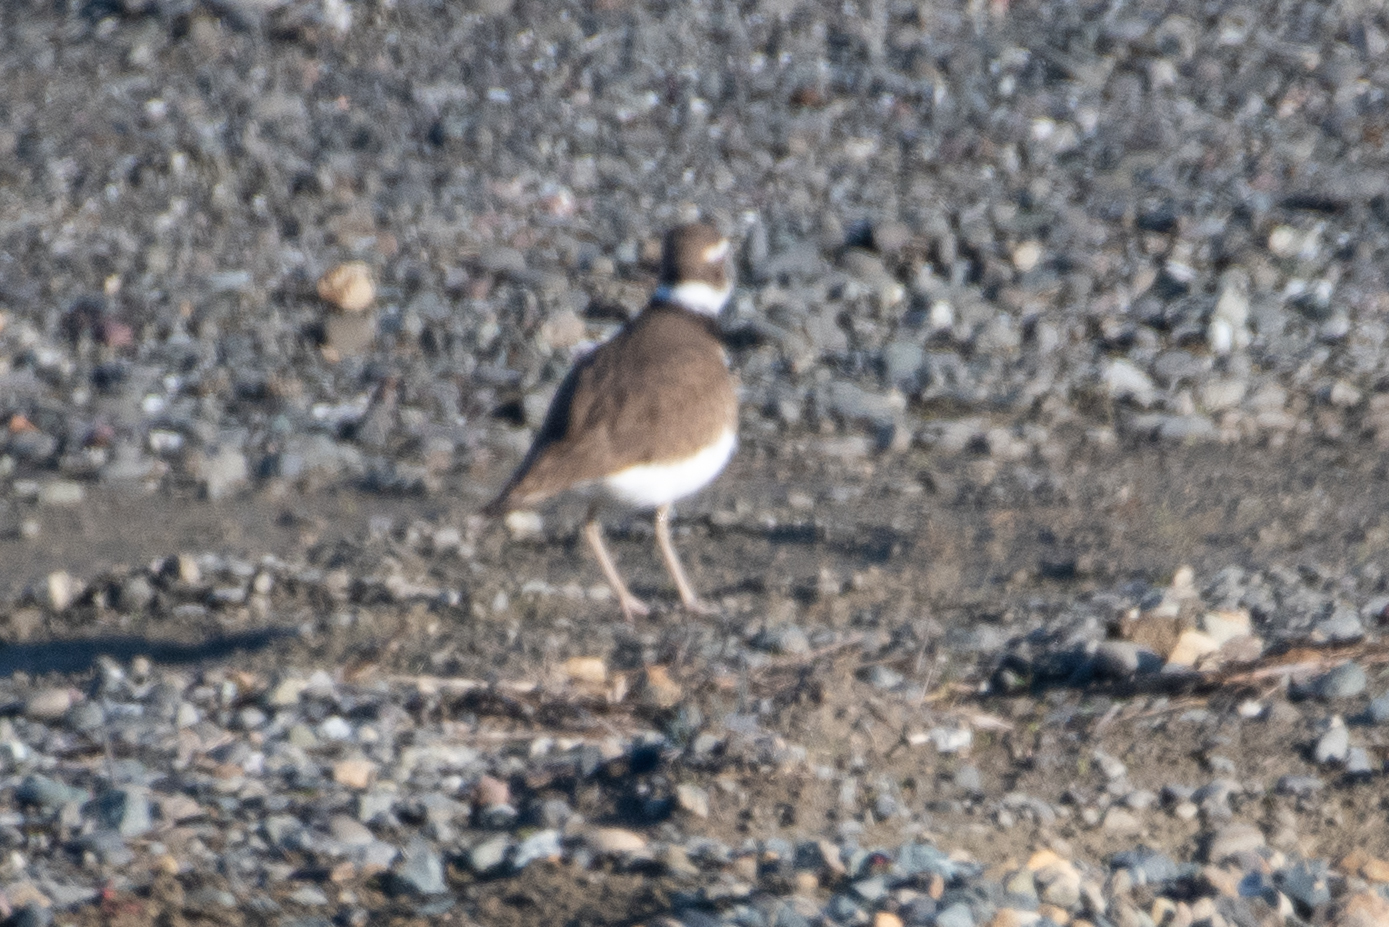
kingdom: Animalia
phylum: Chordata
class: Aves
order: Charadriiformes
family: Charadriidae
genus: Charadrius
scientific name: Charadrius vociferus
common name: Killdeer
